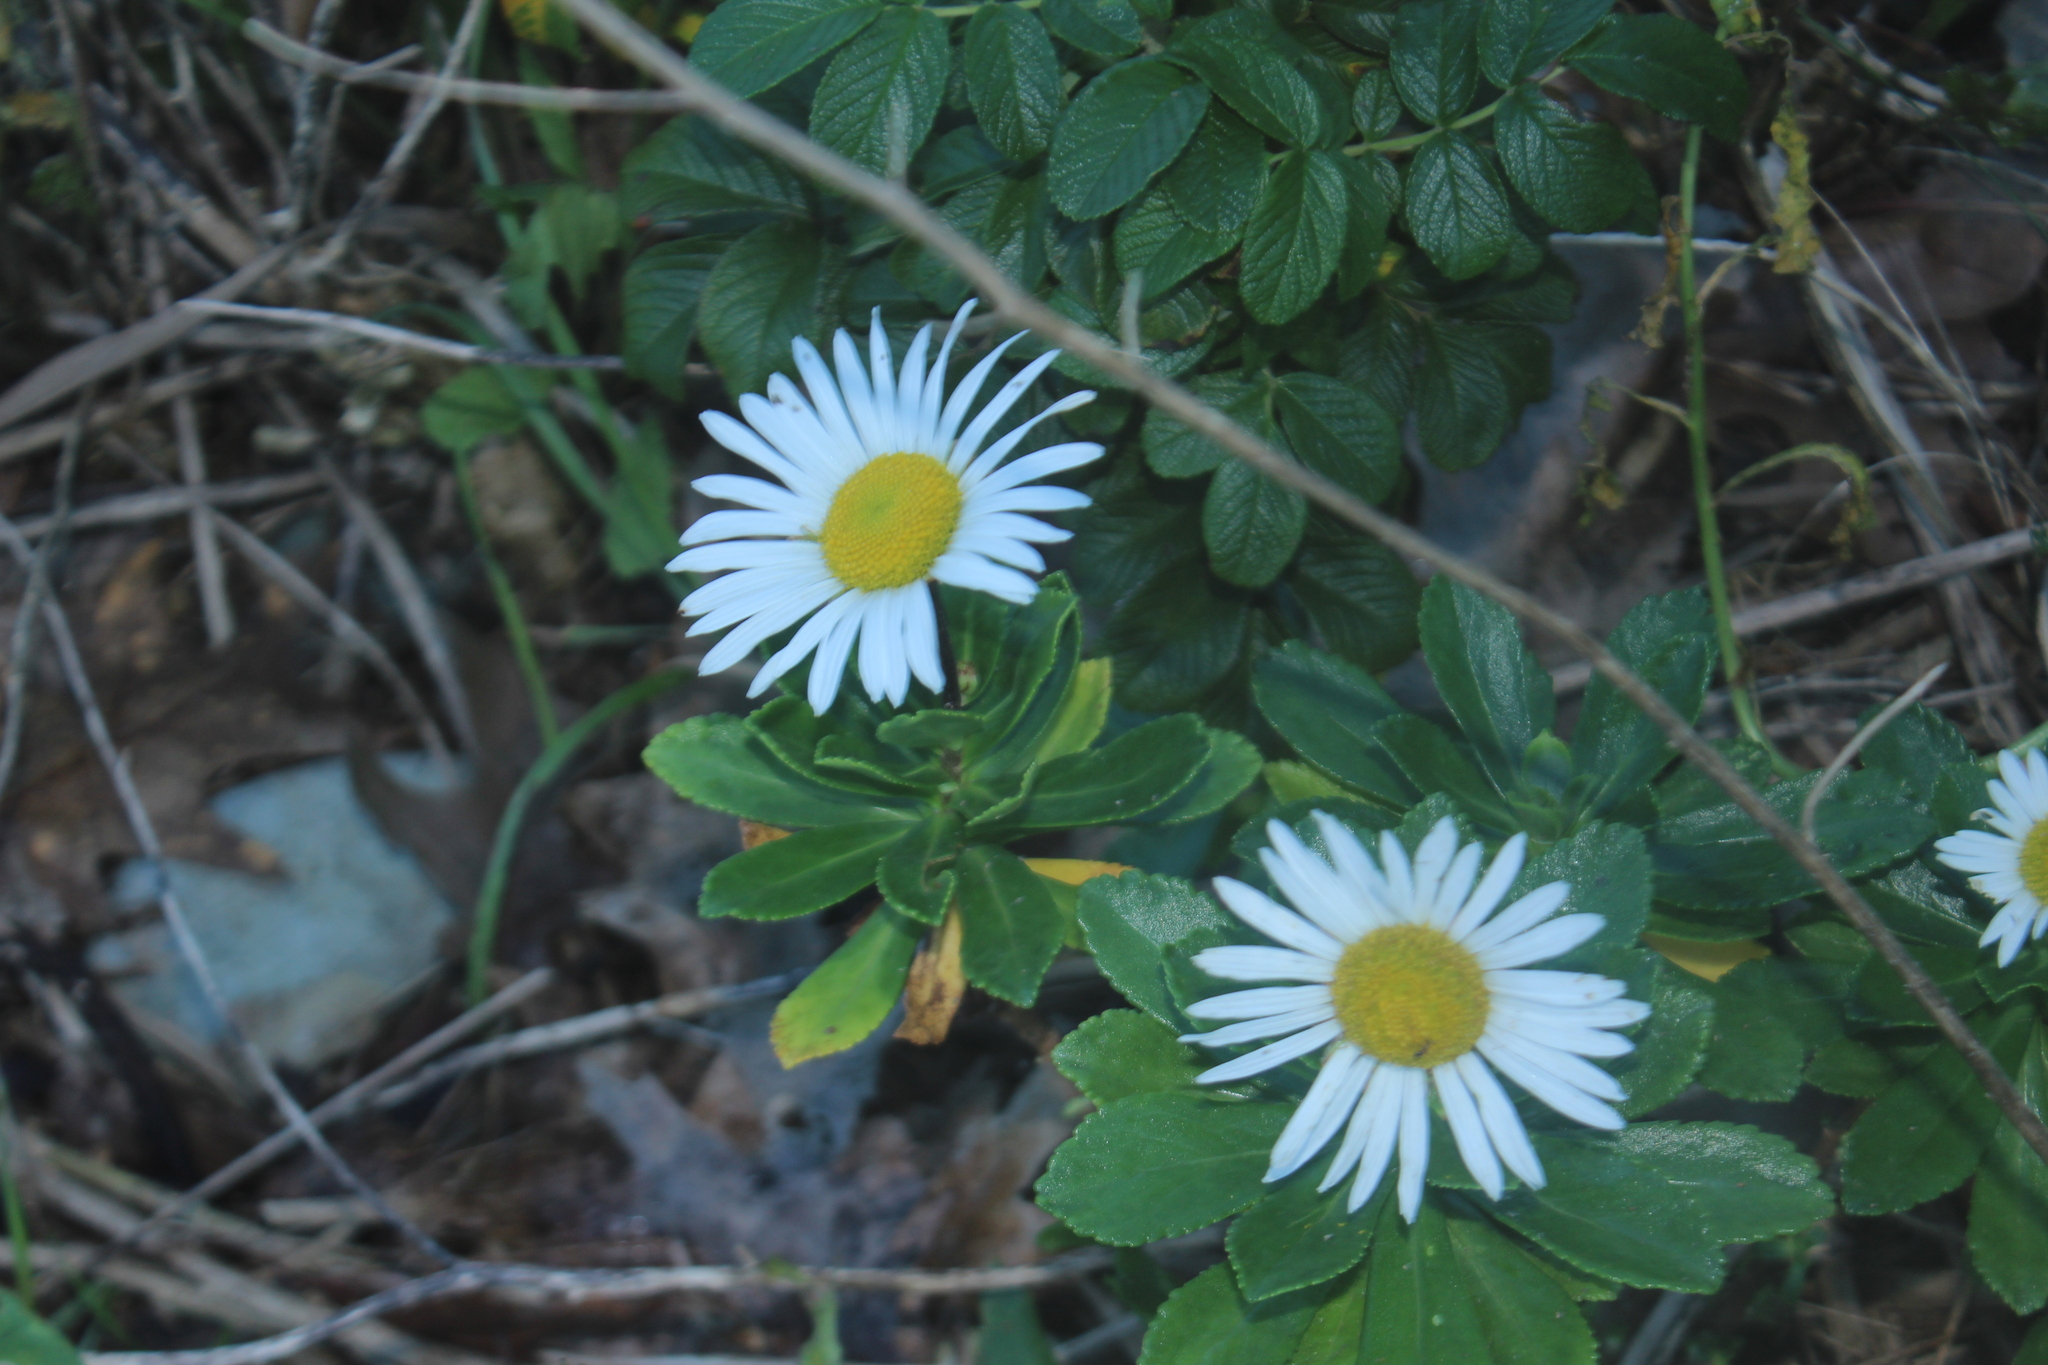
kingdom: Plantae
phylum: Tracheophyta
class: Magnoliopsida
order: Asterales
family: Asteraceae
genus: Nipponanthemum
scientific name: Nipponanthemum nipponicum
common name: Nippon daisy
